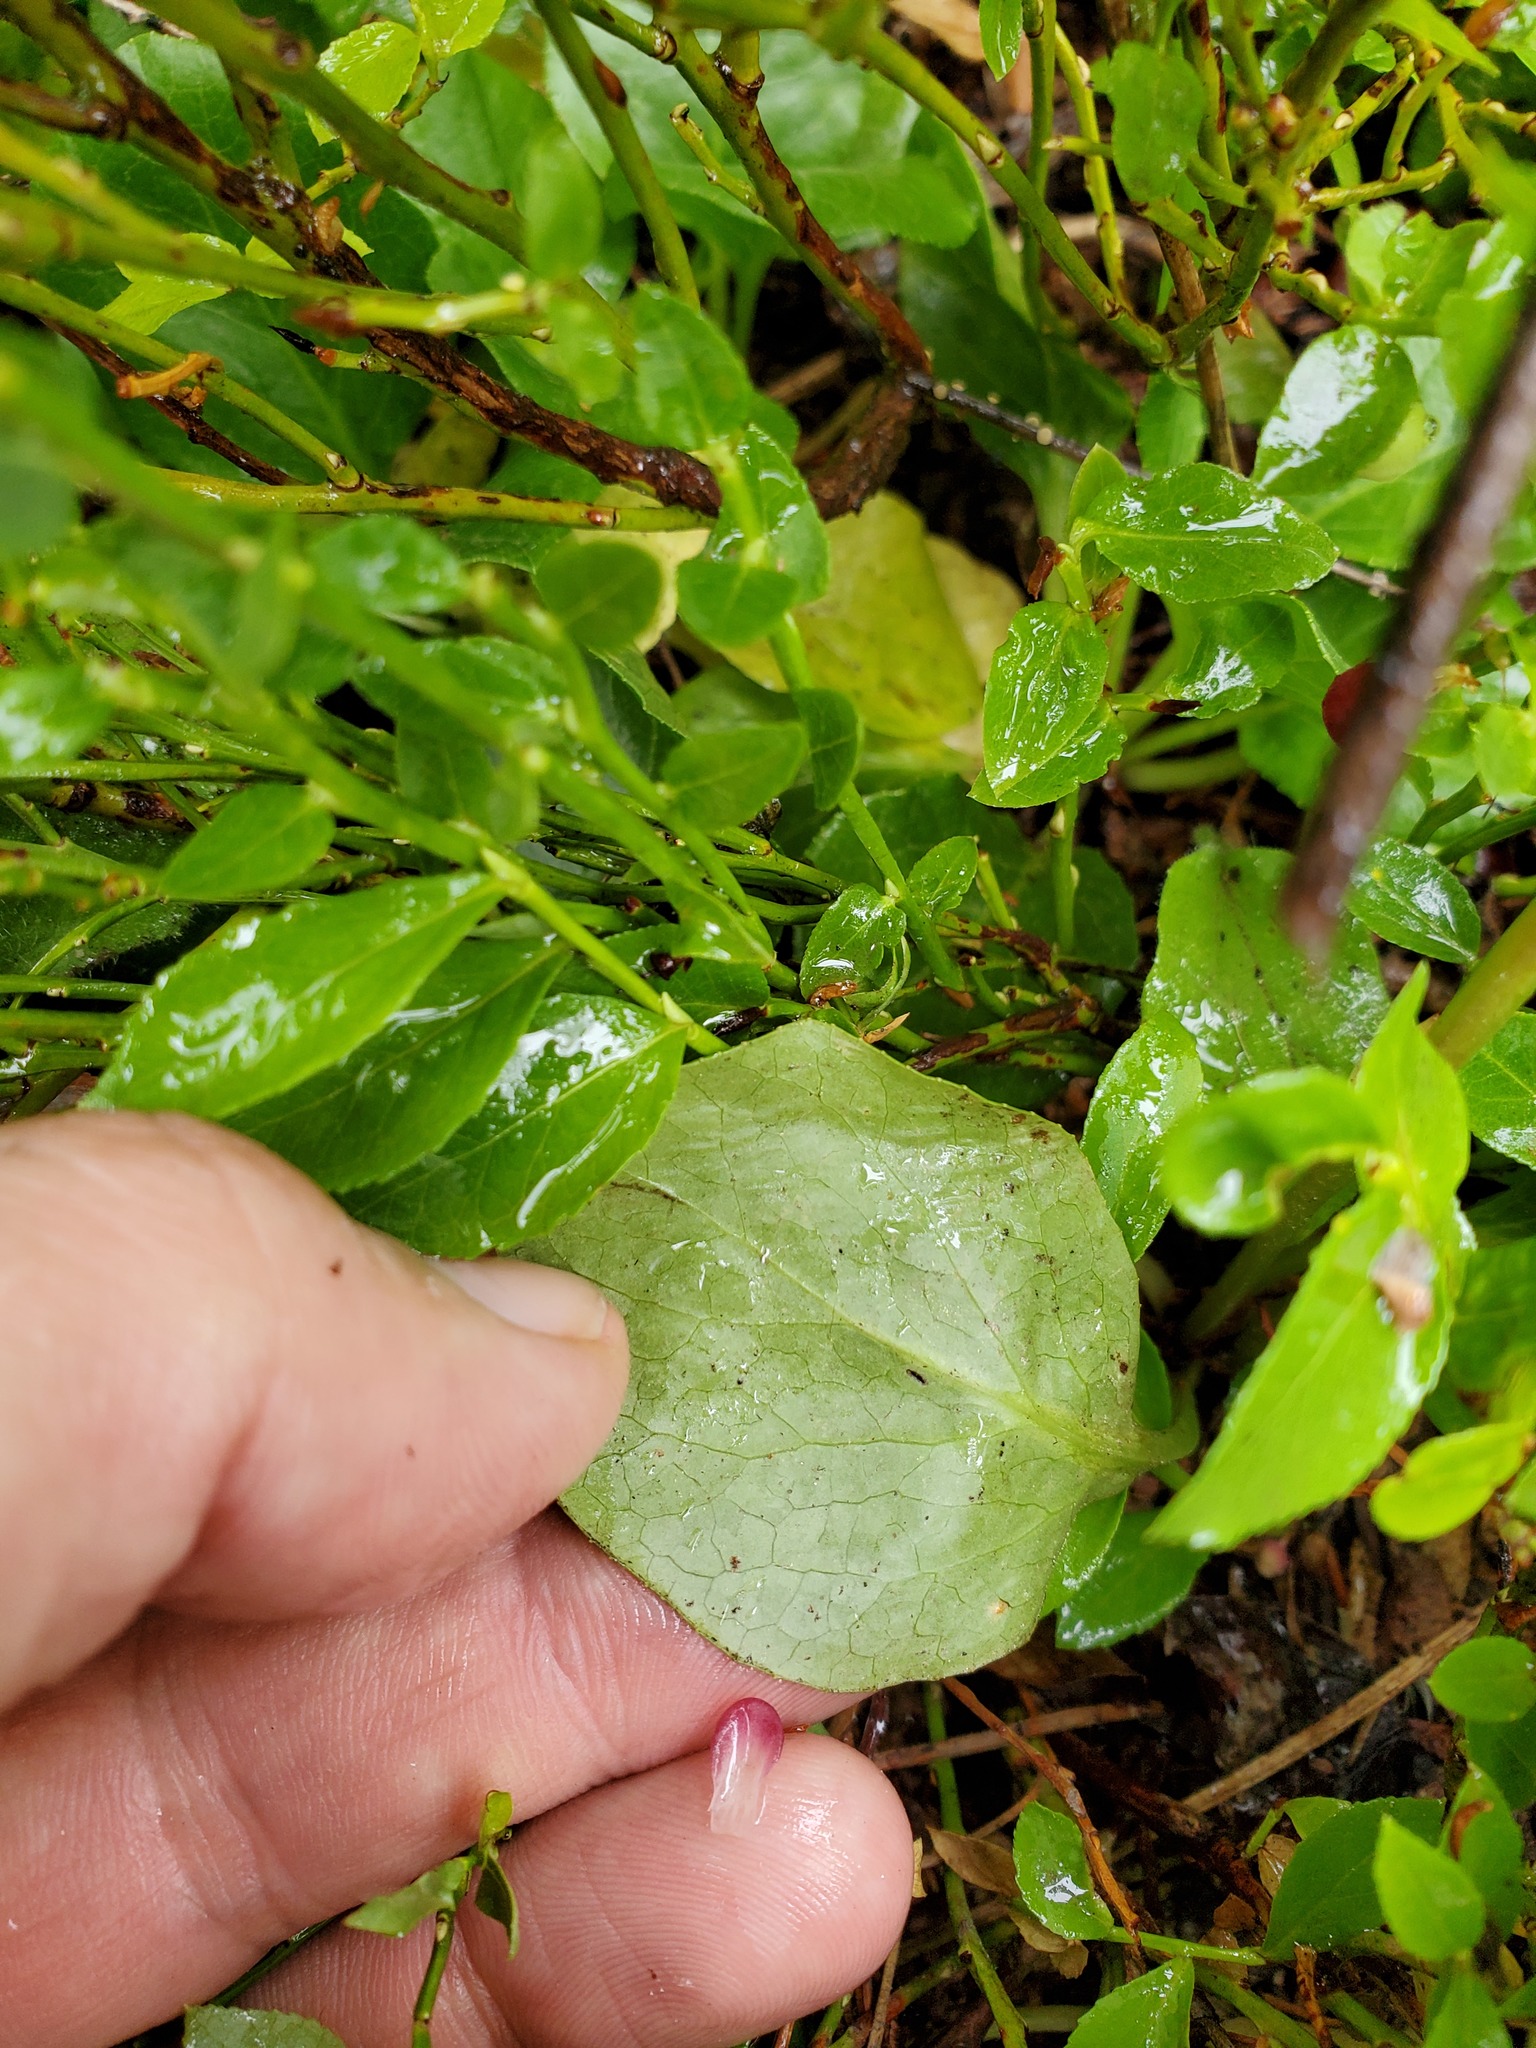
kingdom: Plantae
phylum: Tracheophyta
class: Magnoliopsida
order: Ericales
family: Ericaceae
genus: Pyrola
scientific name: Pyrola asarifolia
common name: Bog wintergreen
